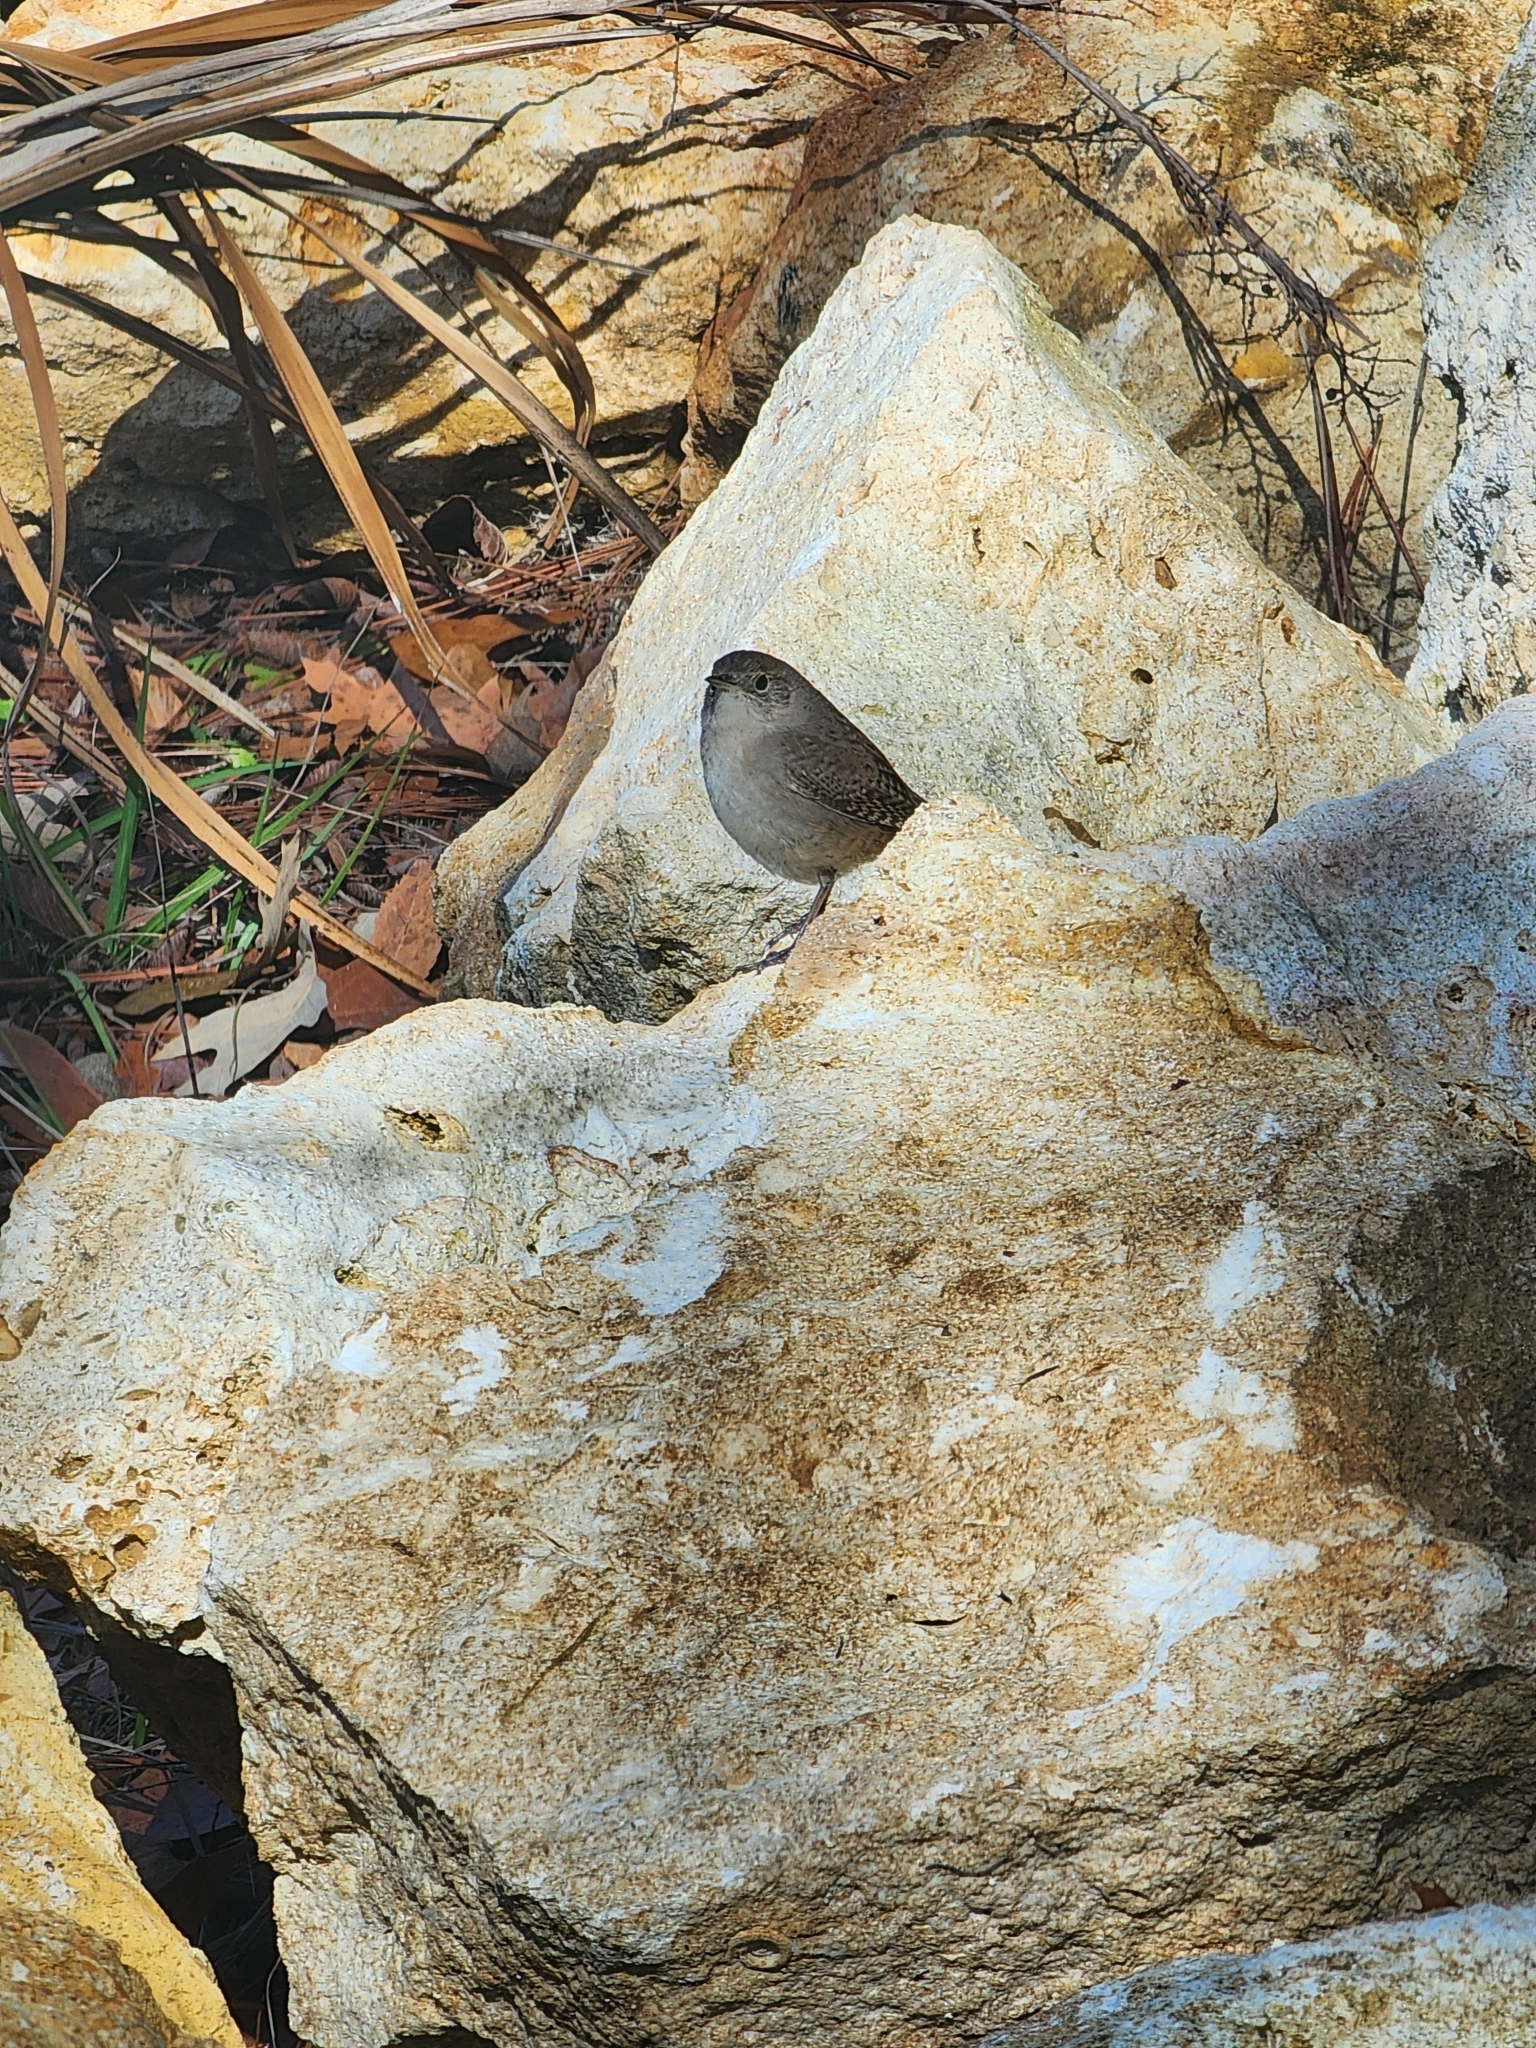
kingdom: Animalia
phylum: Chordata
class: Aves
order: Passeriformes
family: Troglodytidae
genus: Troglodytes
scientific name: Troglodytes aedon
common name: House wren
